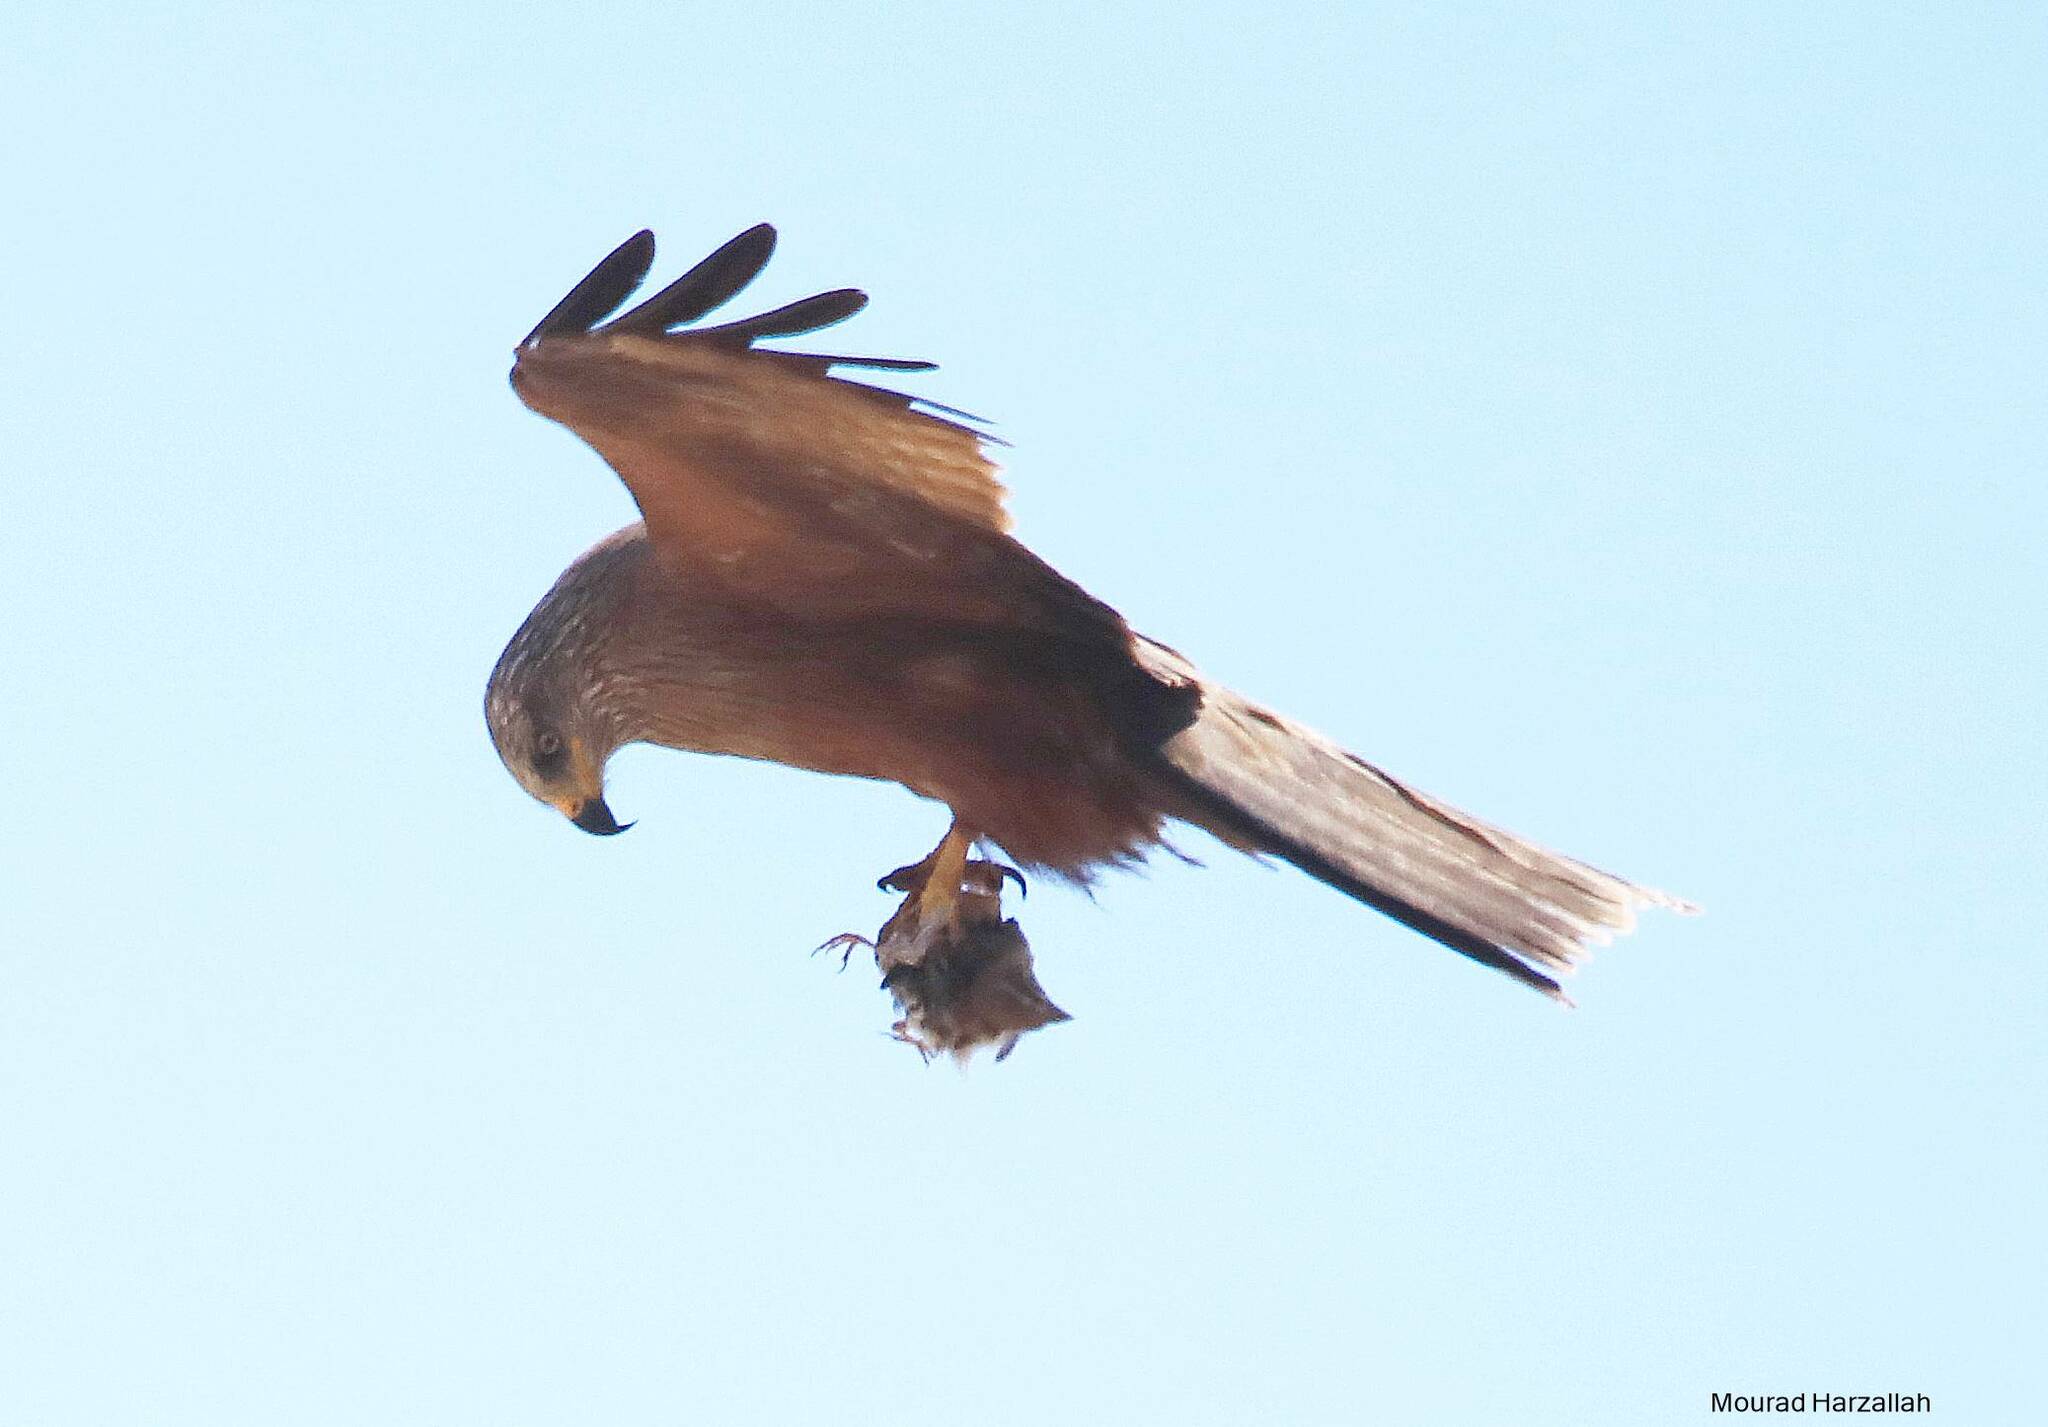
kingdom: Animalia
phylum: Chordata
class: Aves
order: Accipitriformes
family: Accipitridae
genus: Milvus
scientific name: Milvus migrans
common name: Black kite
